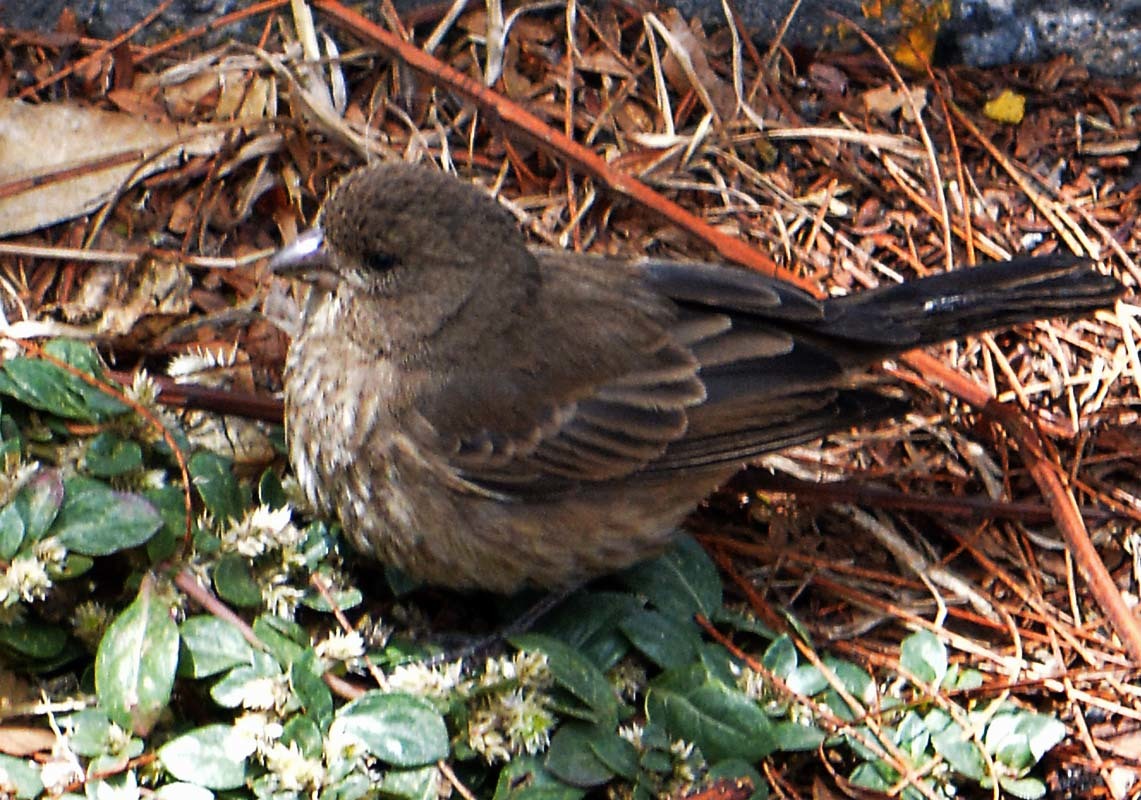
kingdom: Animalia
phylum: Chordata
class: Aves
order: Passeriformes
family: Fringillidae
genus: Haemorhous
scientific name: Haemorhous mexicanus
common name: House finch
